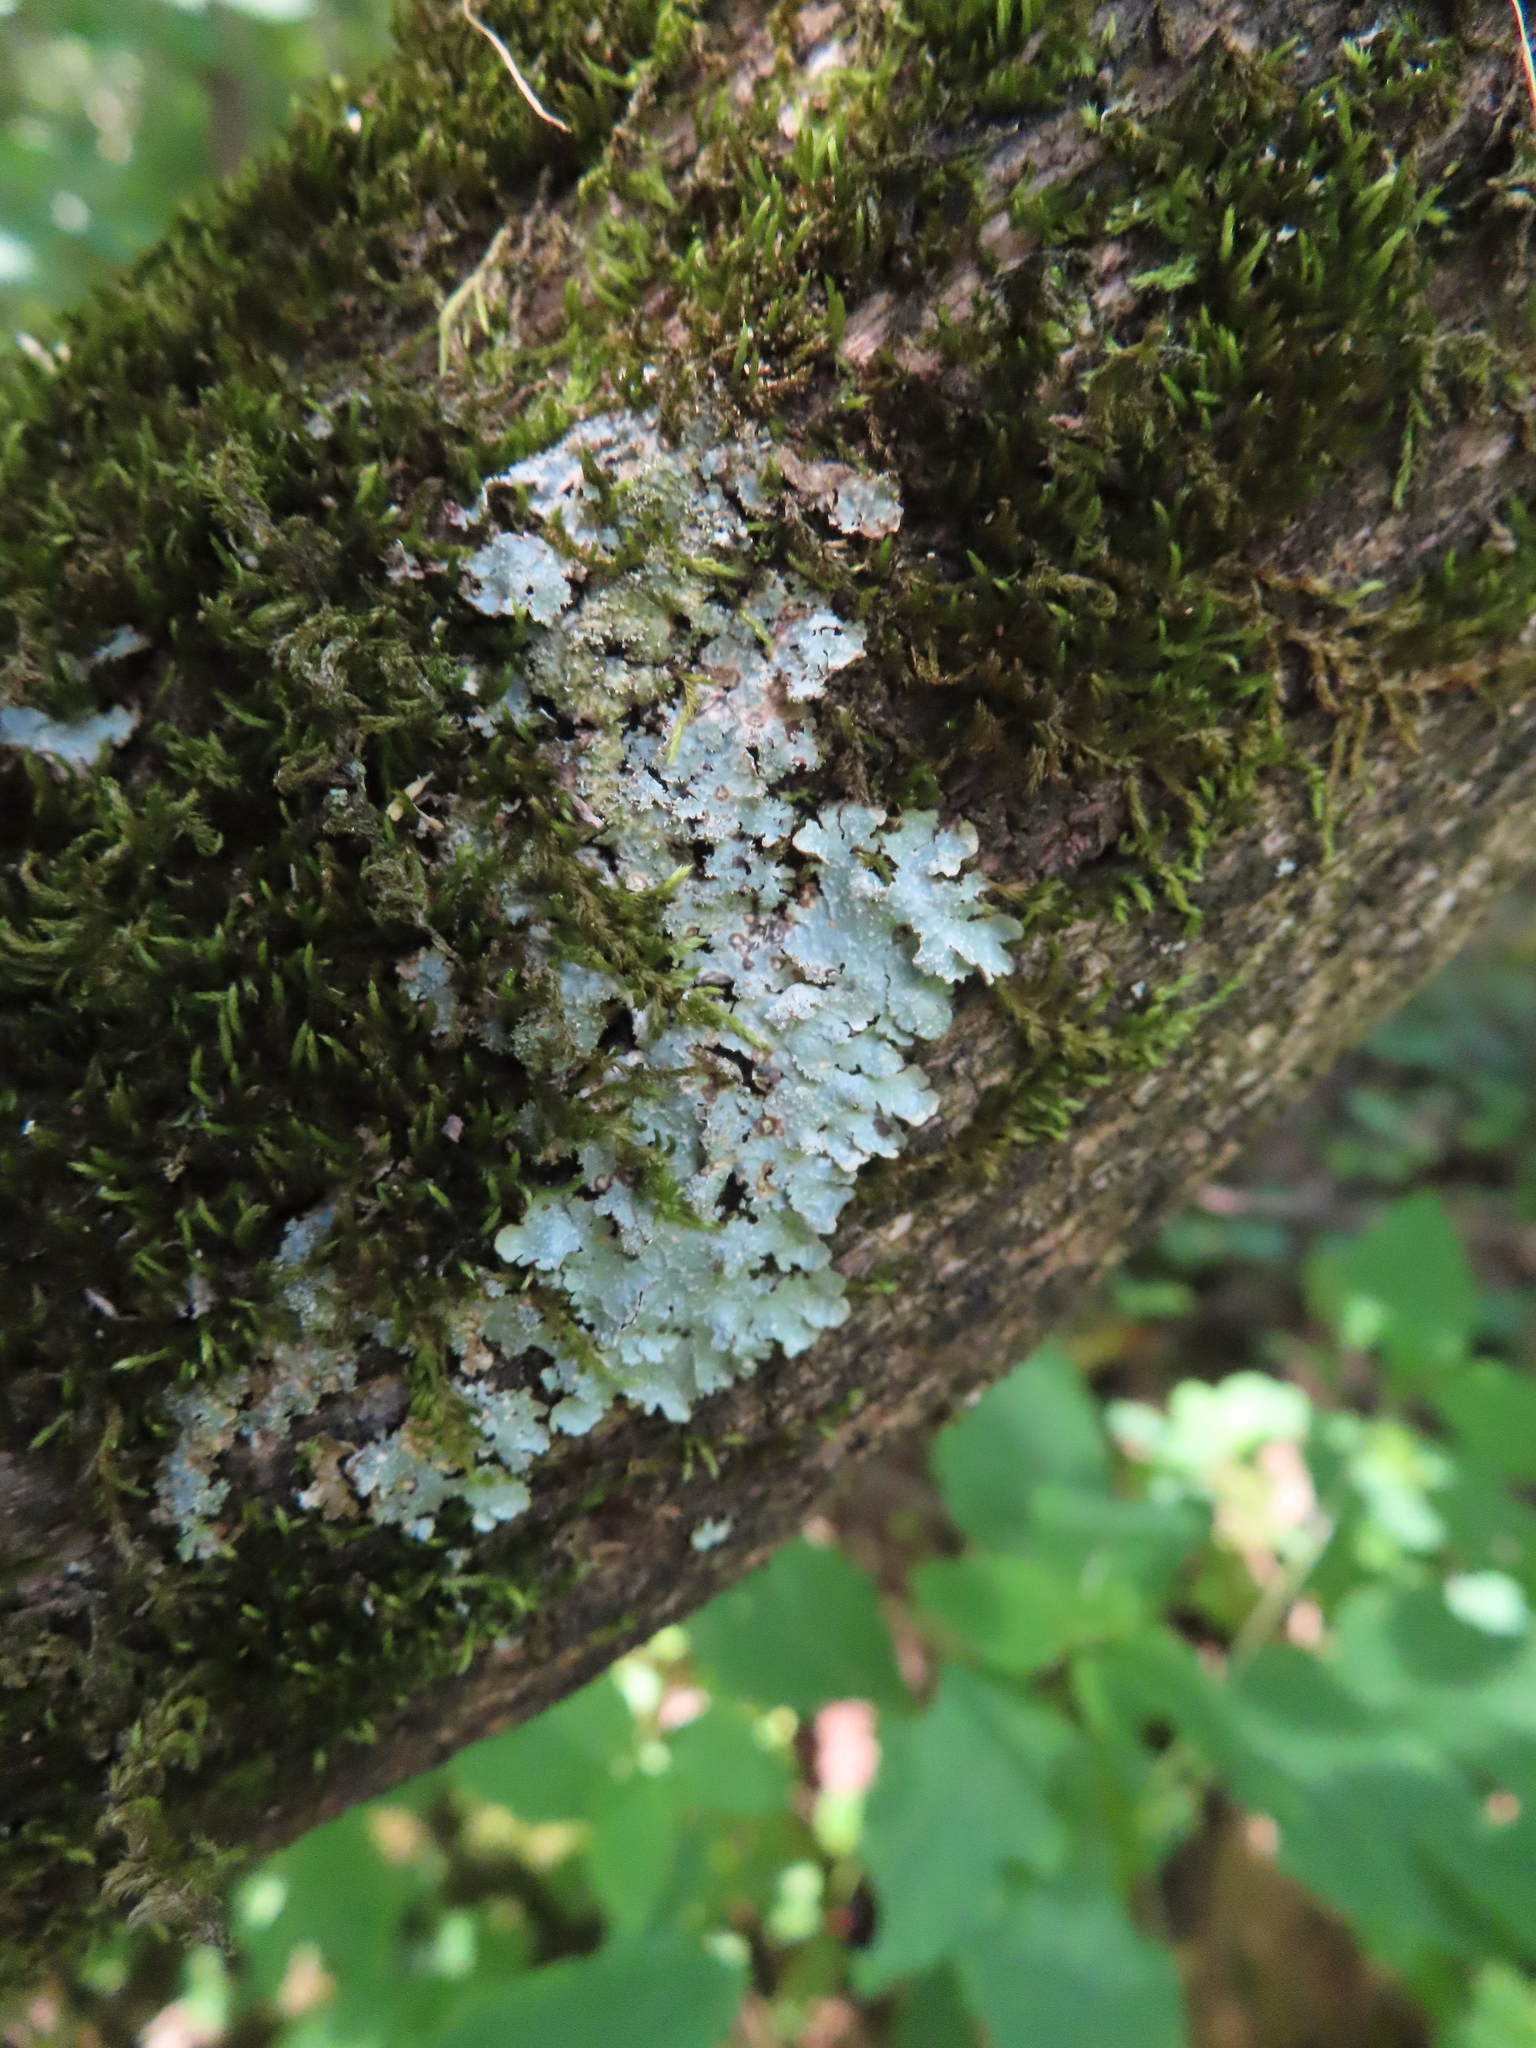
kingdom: Fungi
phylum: Ascomycota
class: Lecanoromycetes
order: Lecanorales
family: Parmeliaceae
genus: Punctelia
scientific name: Punctelia rudecta
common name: Rough speckled shield lichen
